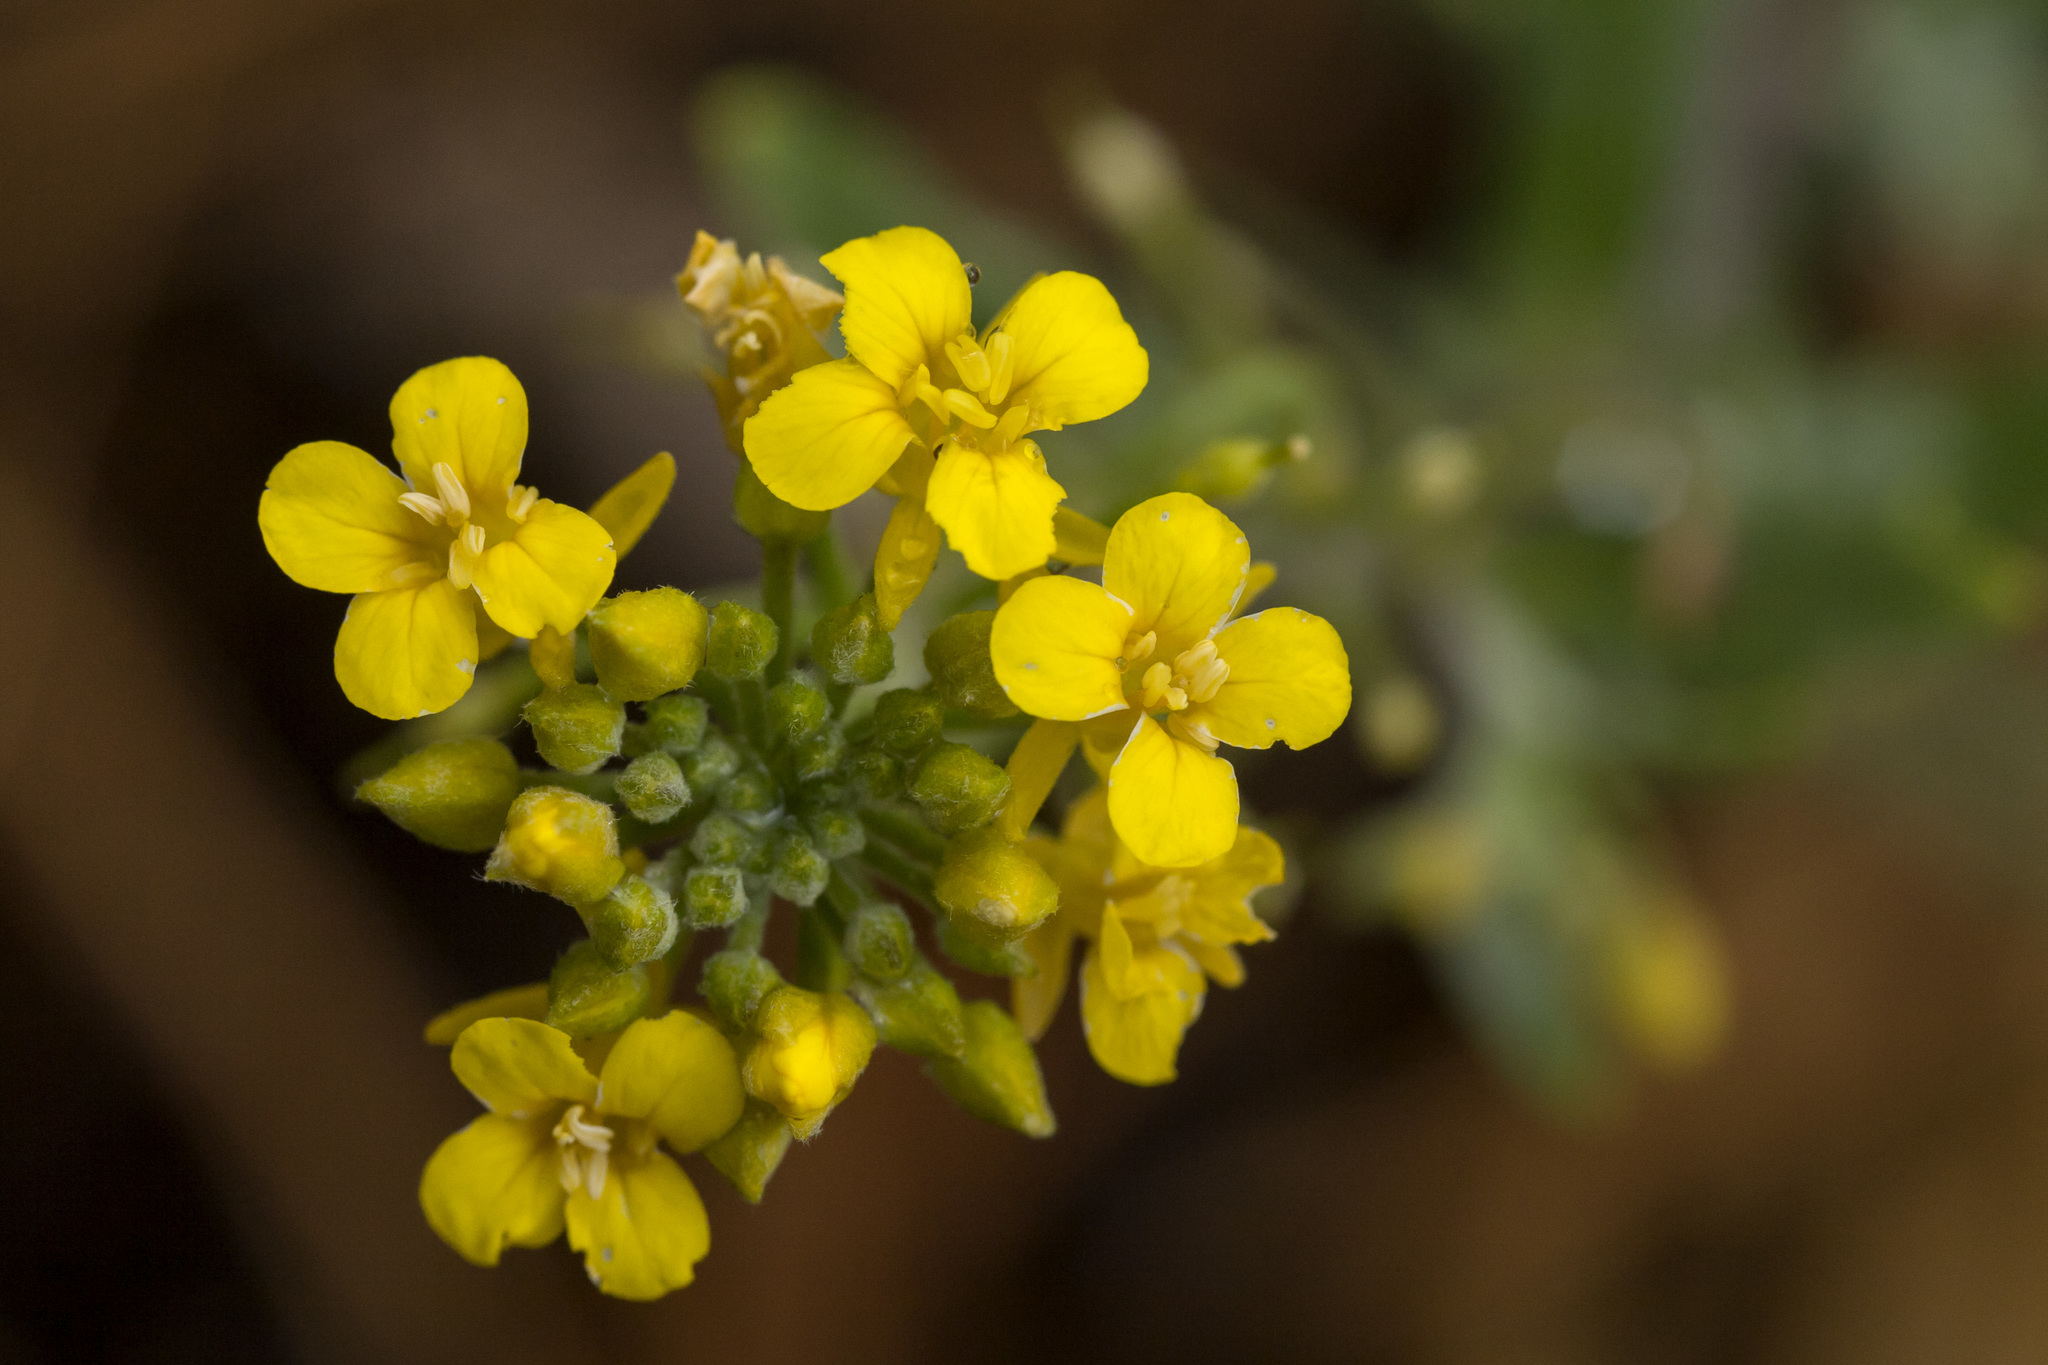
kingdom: Plantae
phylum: Tracheophyta
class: Magnoliopsida
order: Brassicales
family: Brassicaceae
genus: Physaria
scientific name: Physaria aurea
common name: Golden bladderpod
